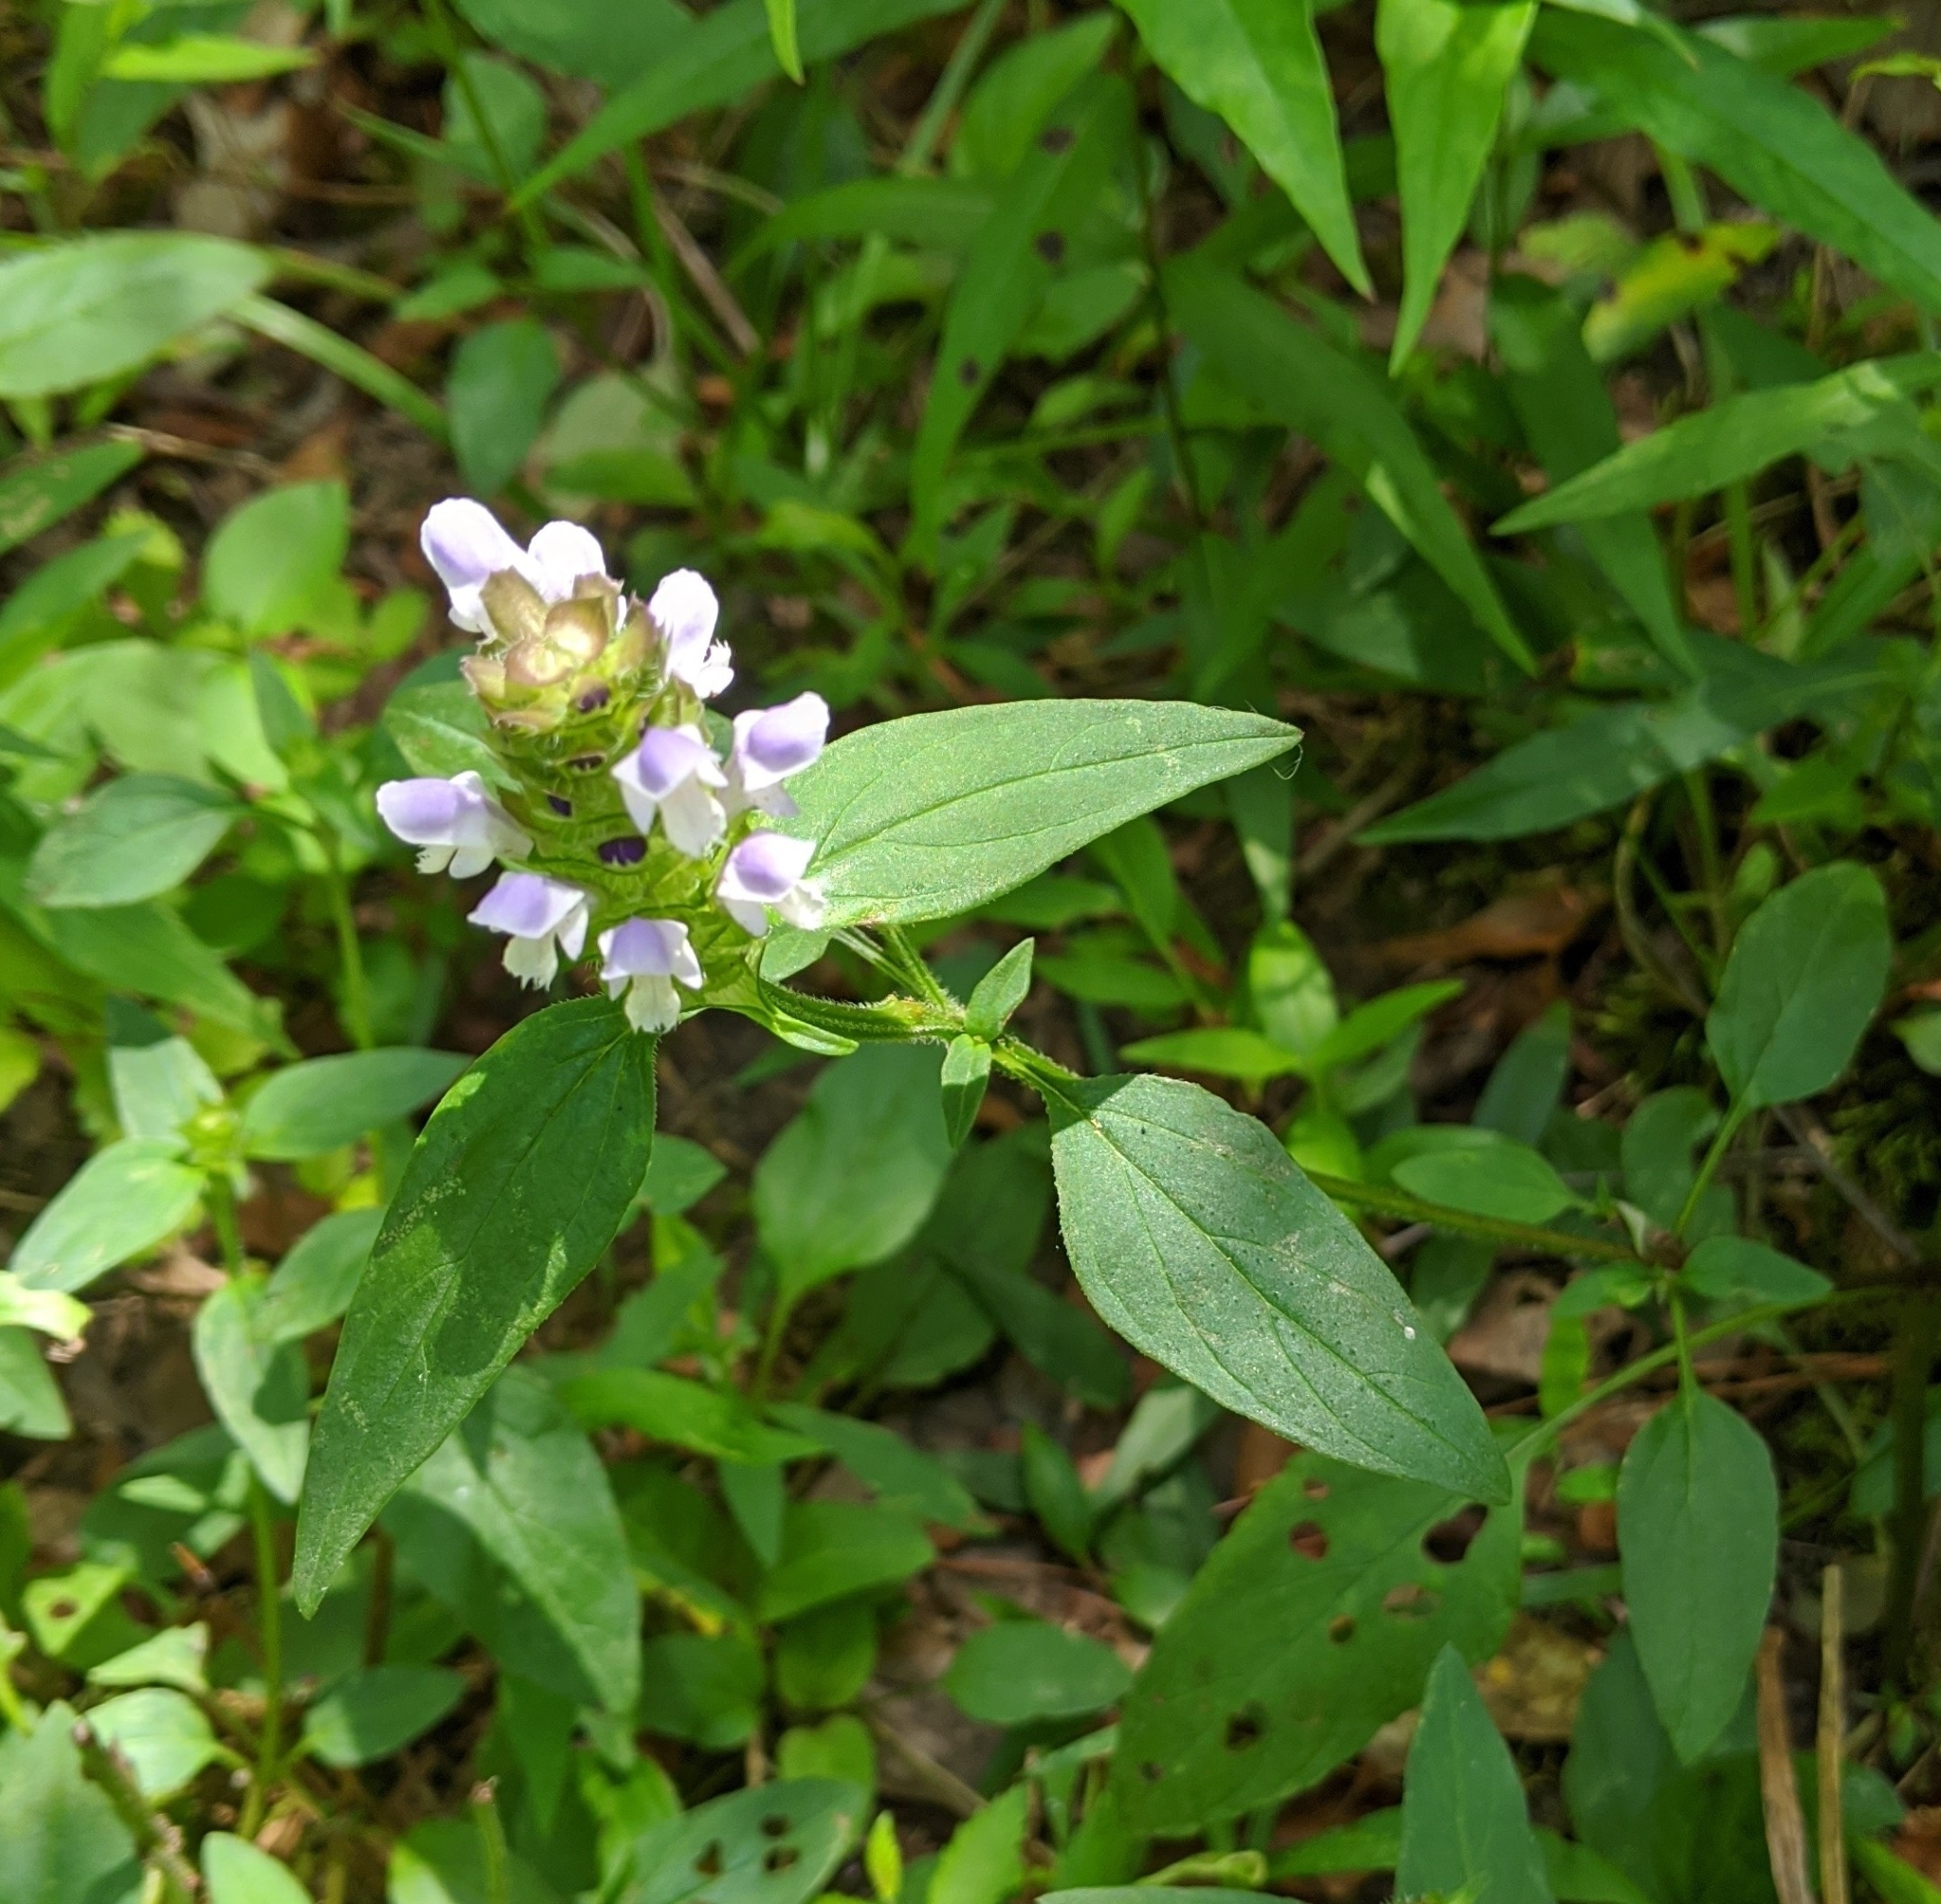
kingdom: Plantae
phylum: Tracheophyta
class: Magnoliopsida
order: Lamiales
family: Lamiaceae
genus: Prunella
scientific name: Prunella vulgaris
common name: Heal-all
